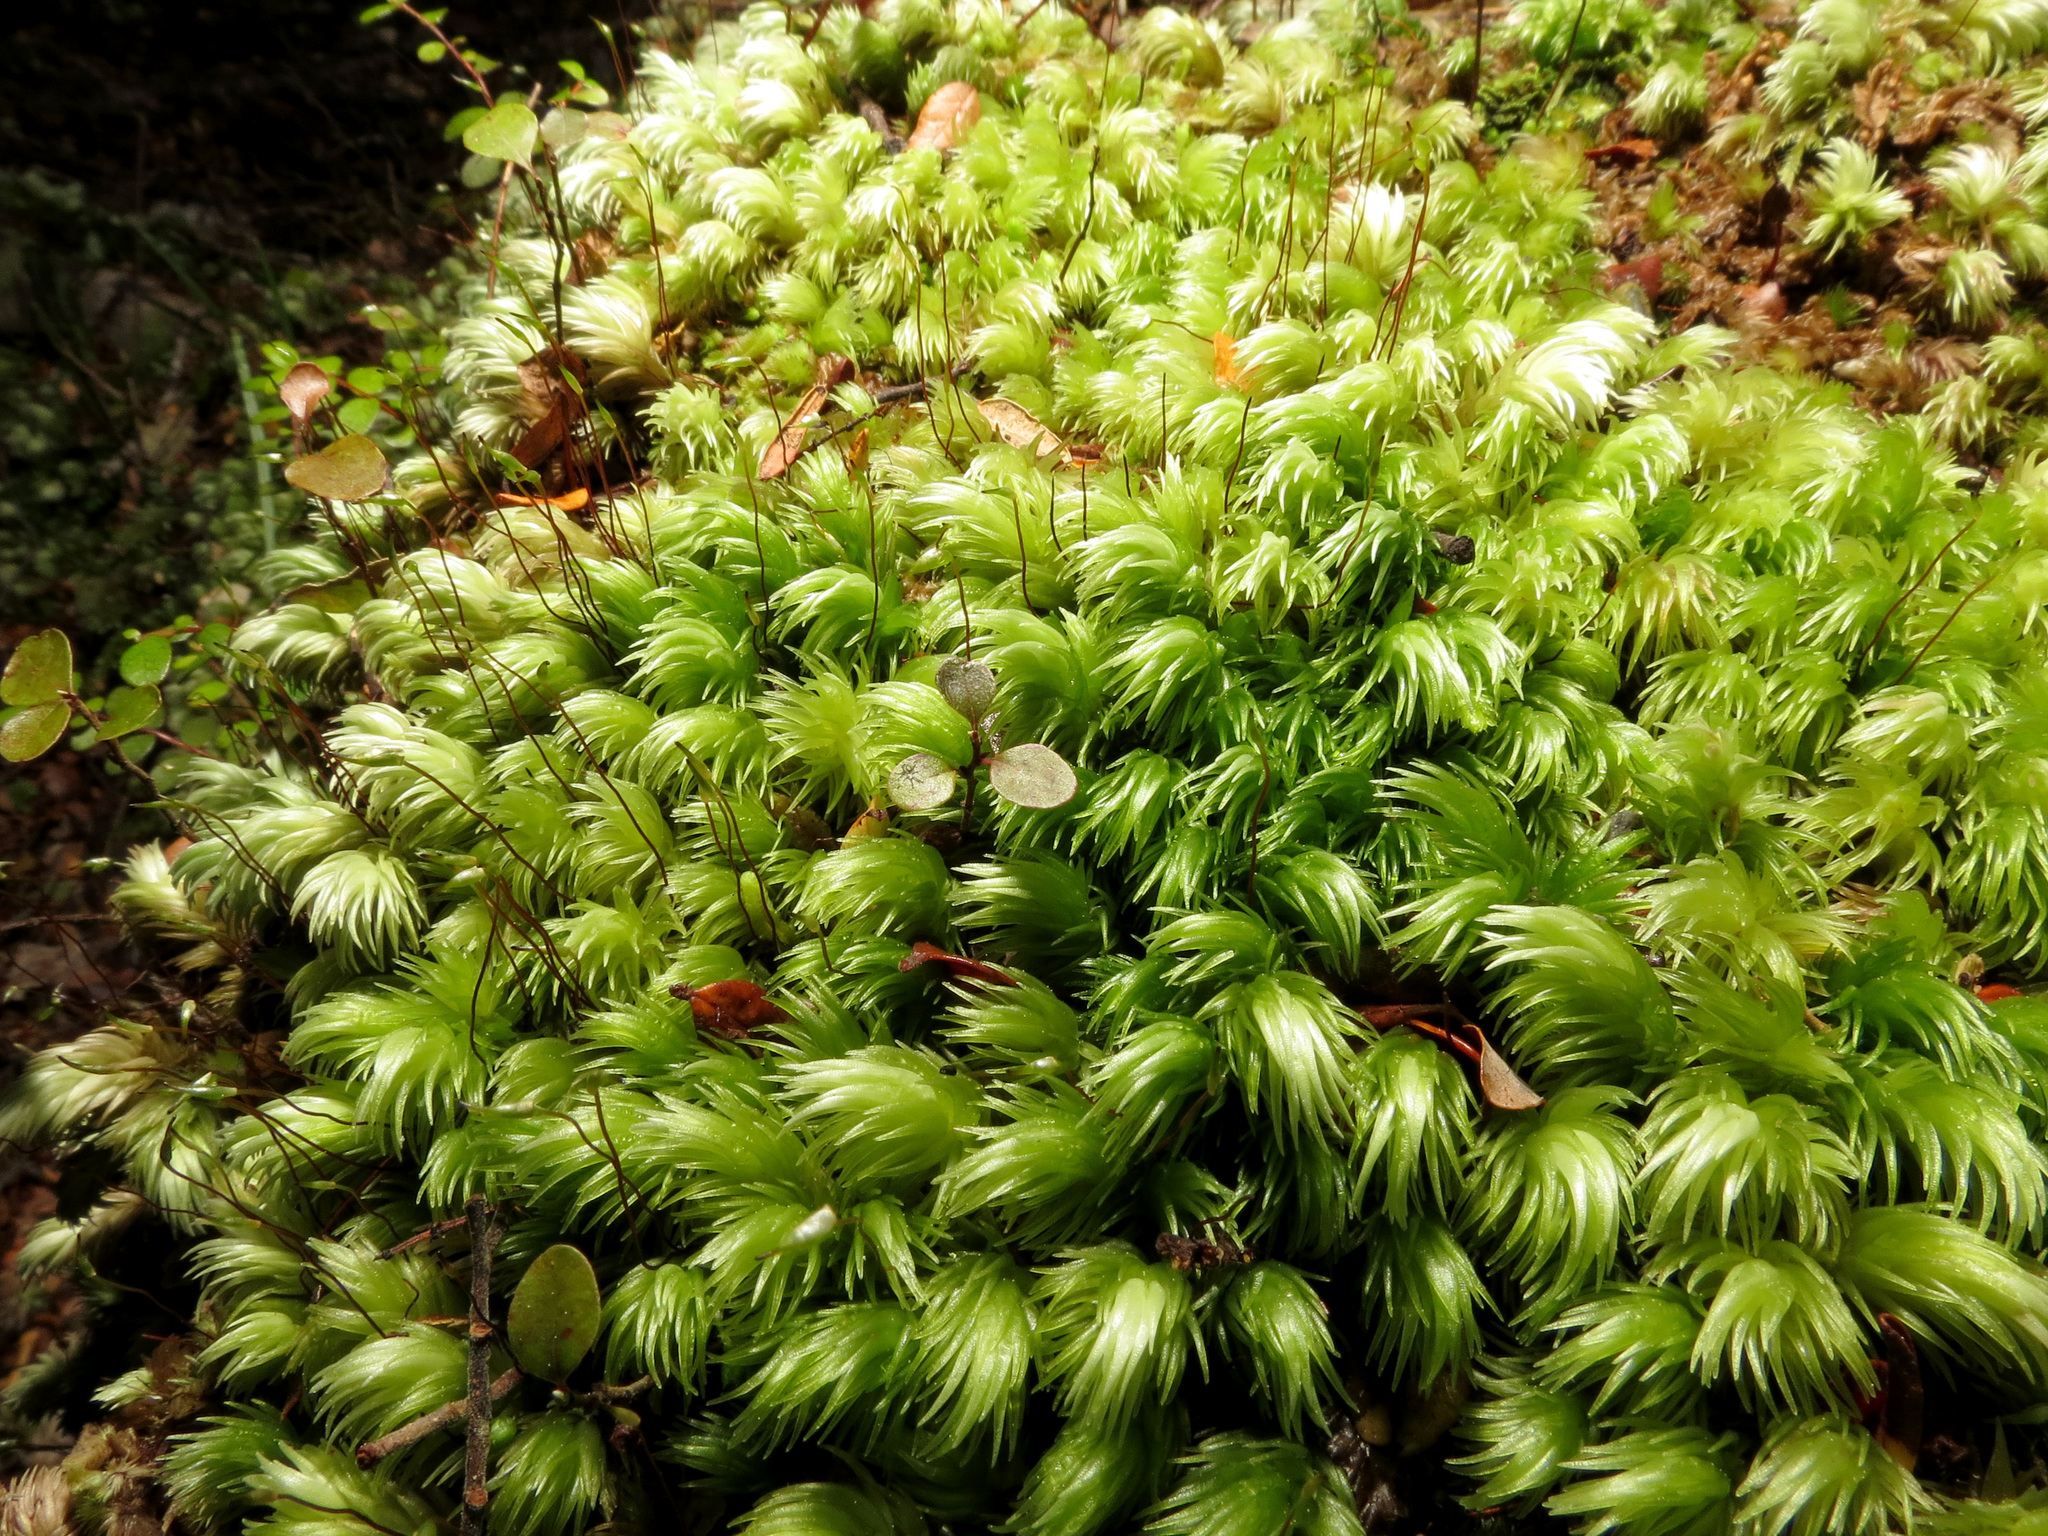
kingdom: Plantae
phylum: Bryophyta
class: Bryopsida
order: Dicranales
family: Leucobryaceae
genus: Leucobryum
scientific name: Leucobryum javense
